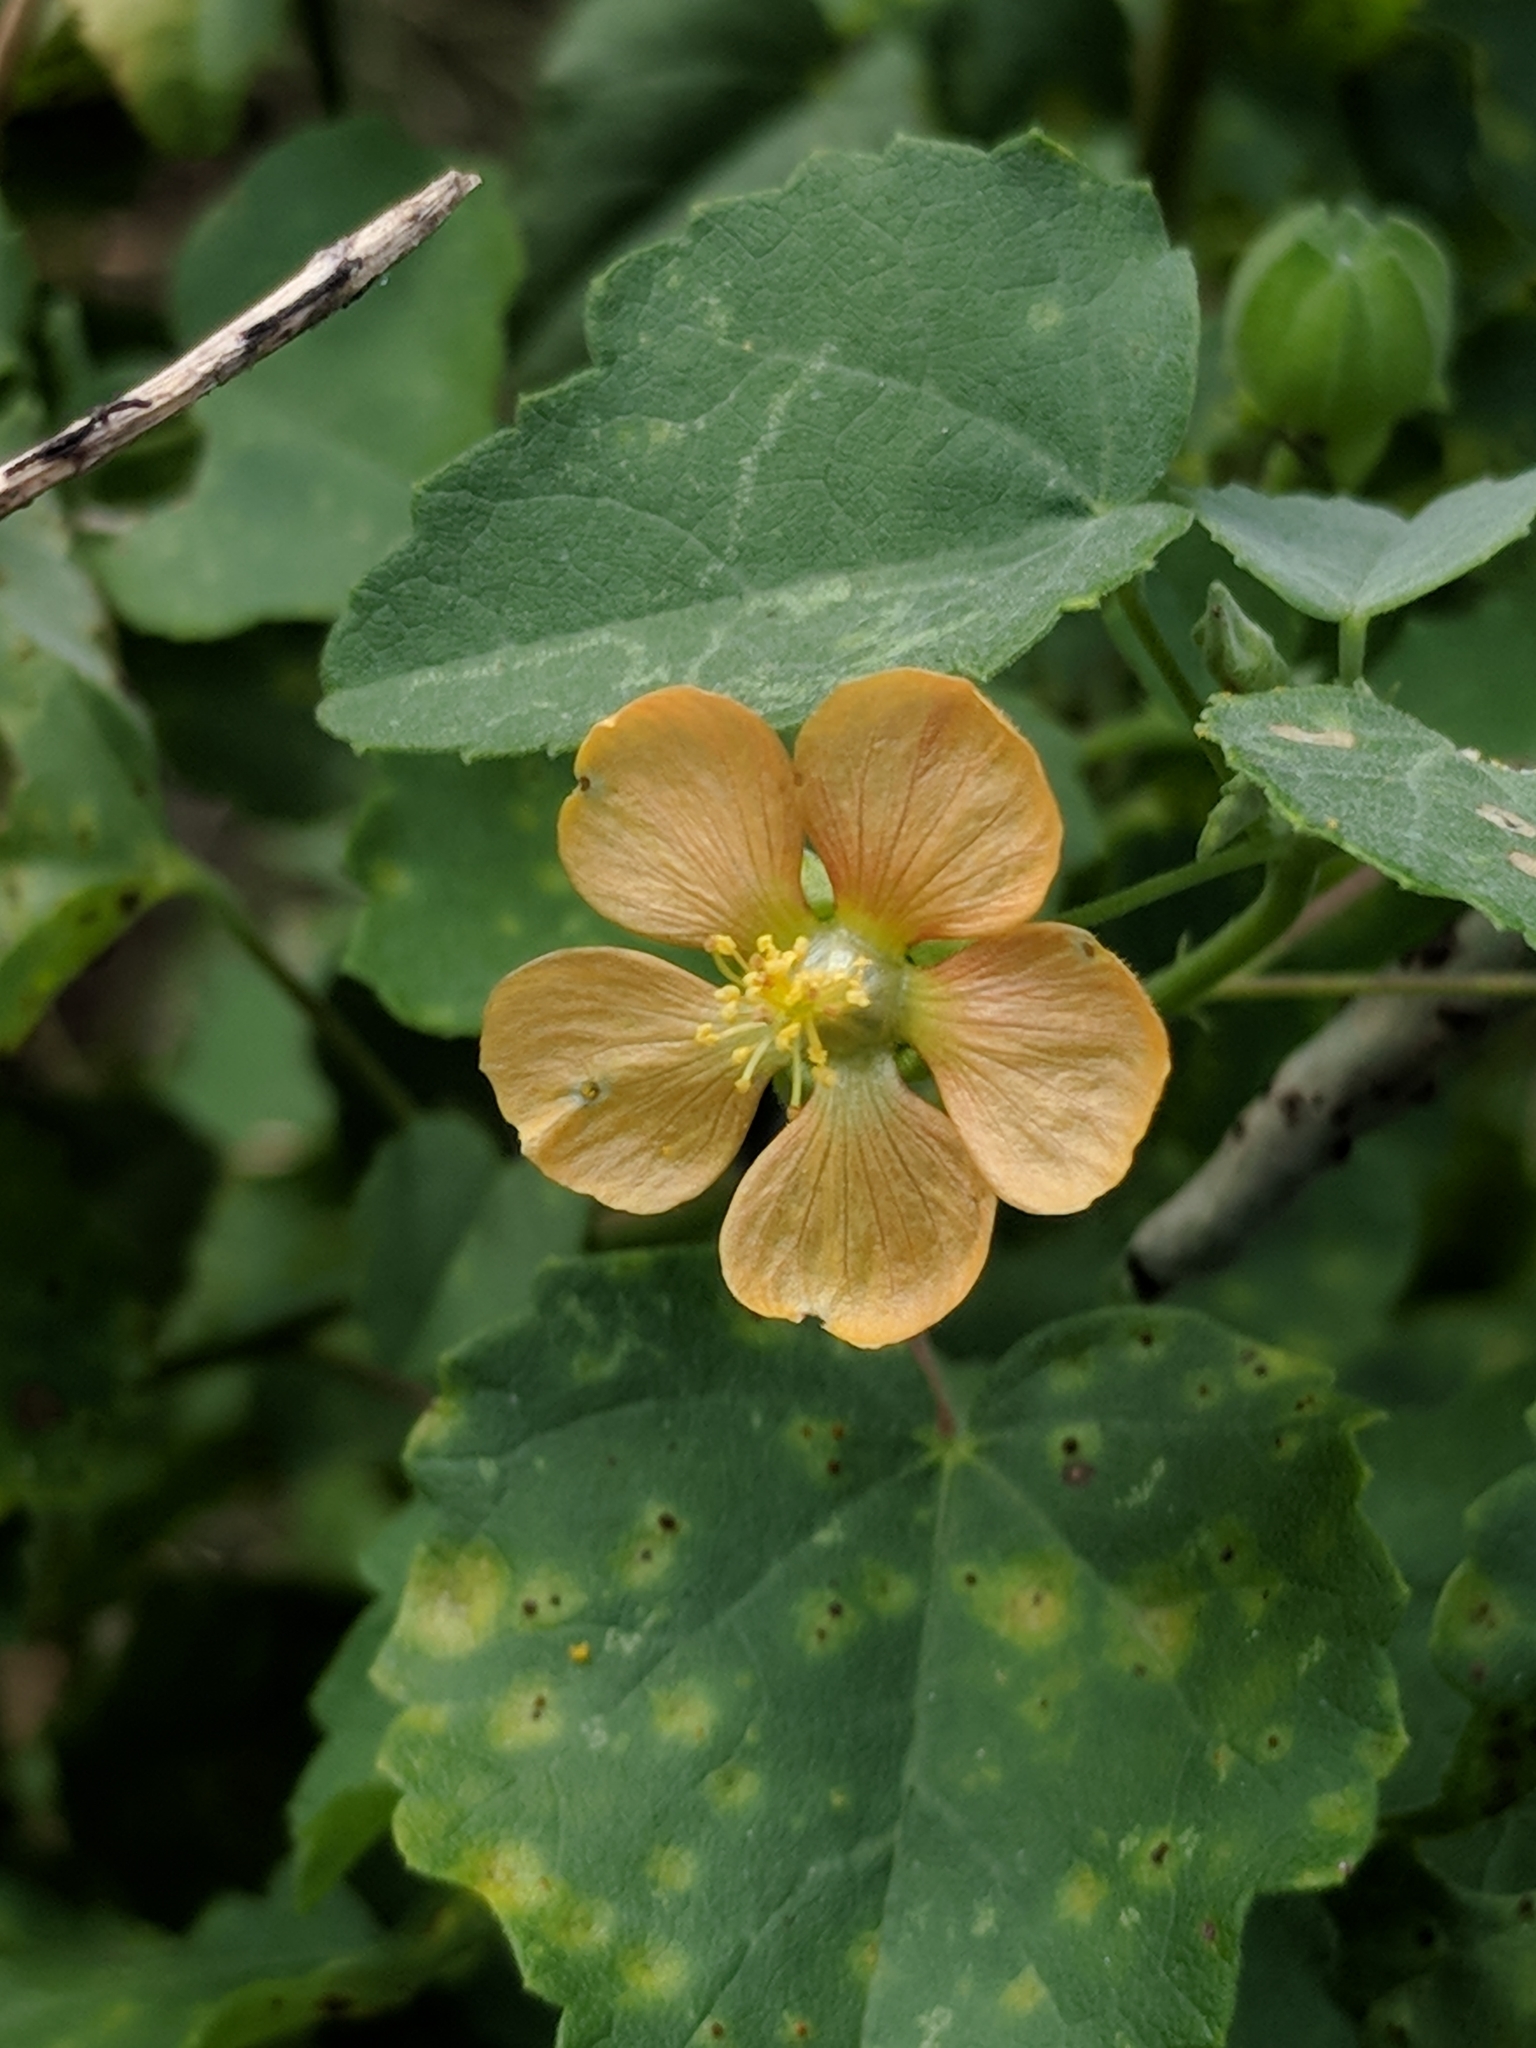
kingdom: Plantae
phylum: Tracheophyta
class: Magnoliopsida
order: Malvales
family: Malvaceae
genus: Abutilon
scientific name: Abutilon fruticosum
